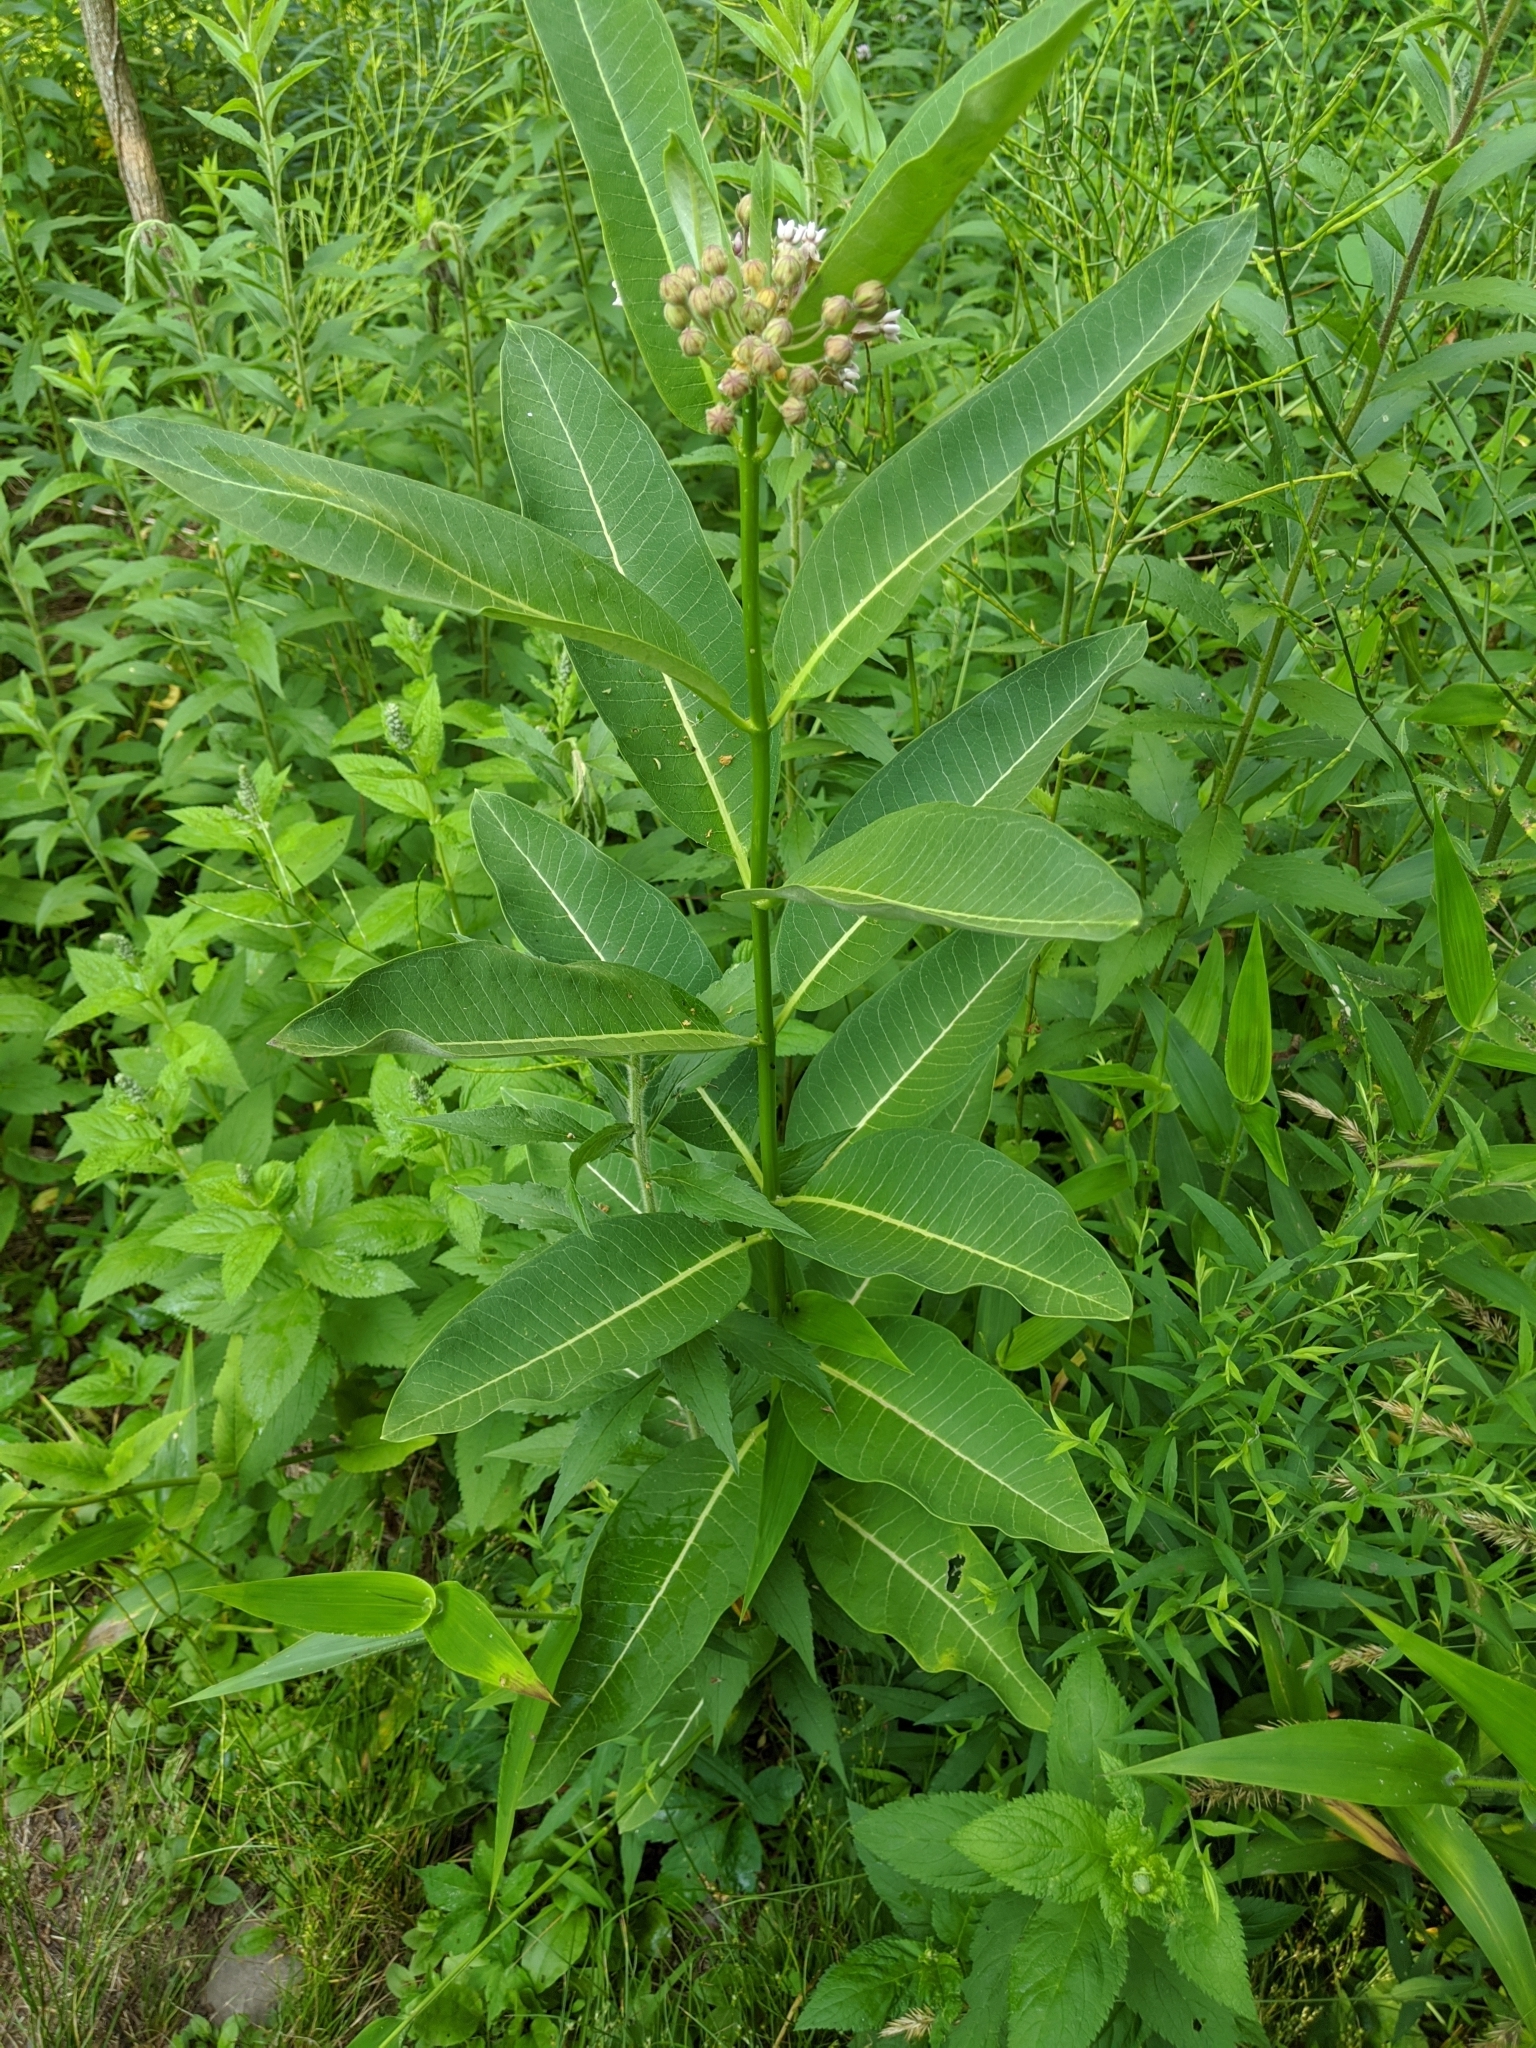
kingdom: Plantae
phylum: Tracheophyta
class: Magnoliopsida
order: Gentianales
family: Apocynaceae
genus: Asclepias
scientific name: Asclepias syriaca
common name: Common milkweed
